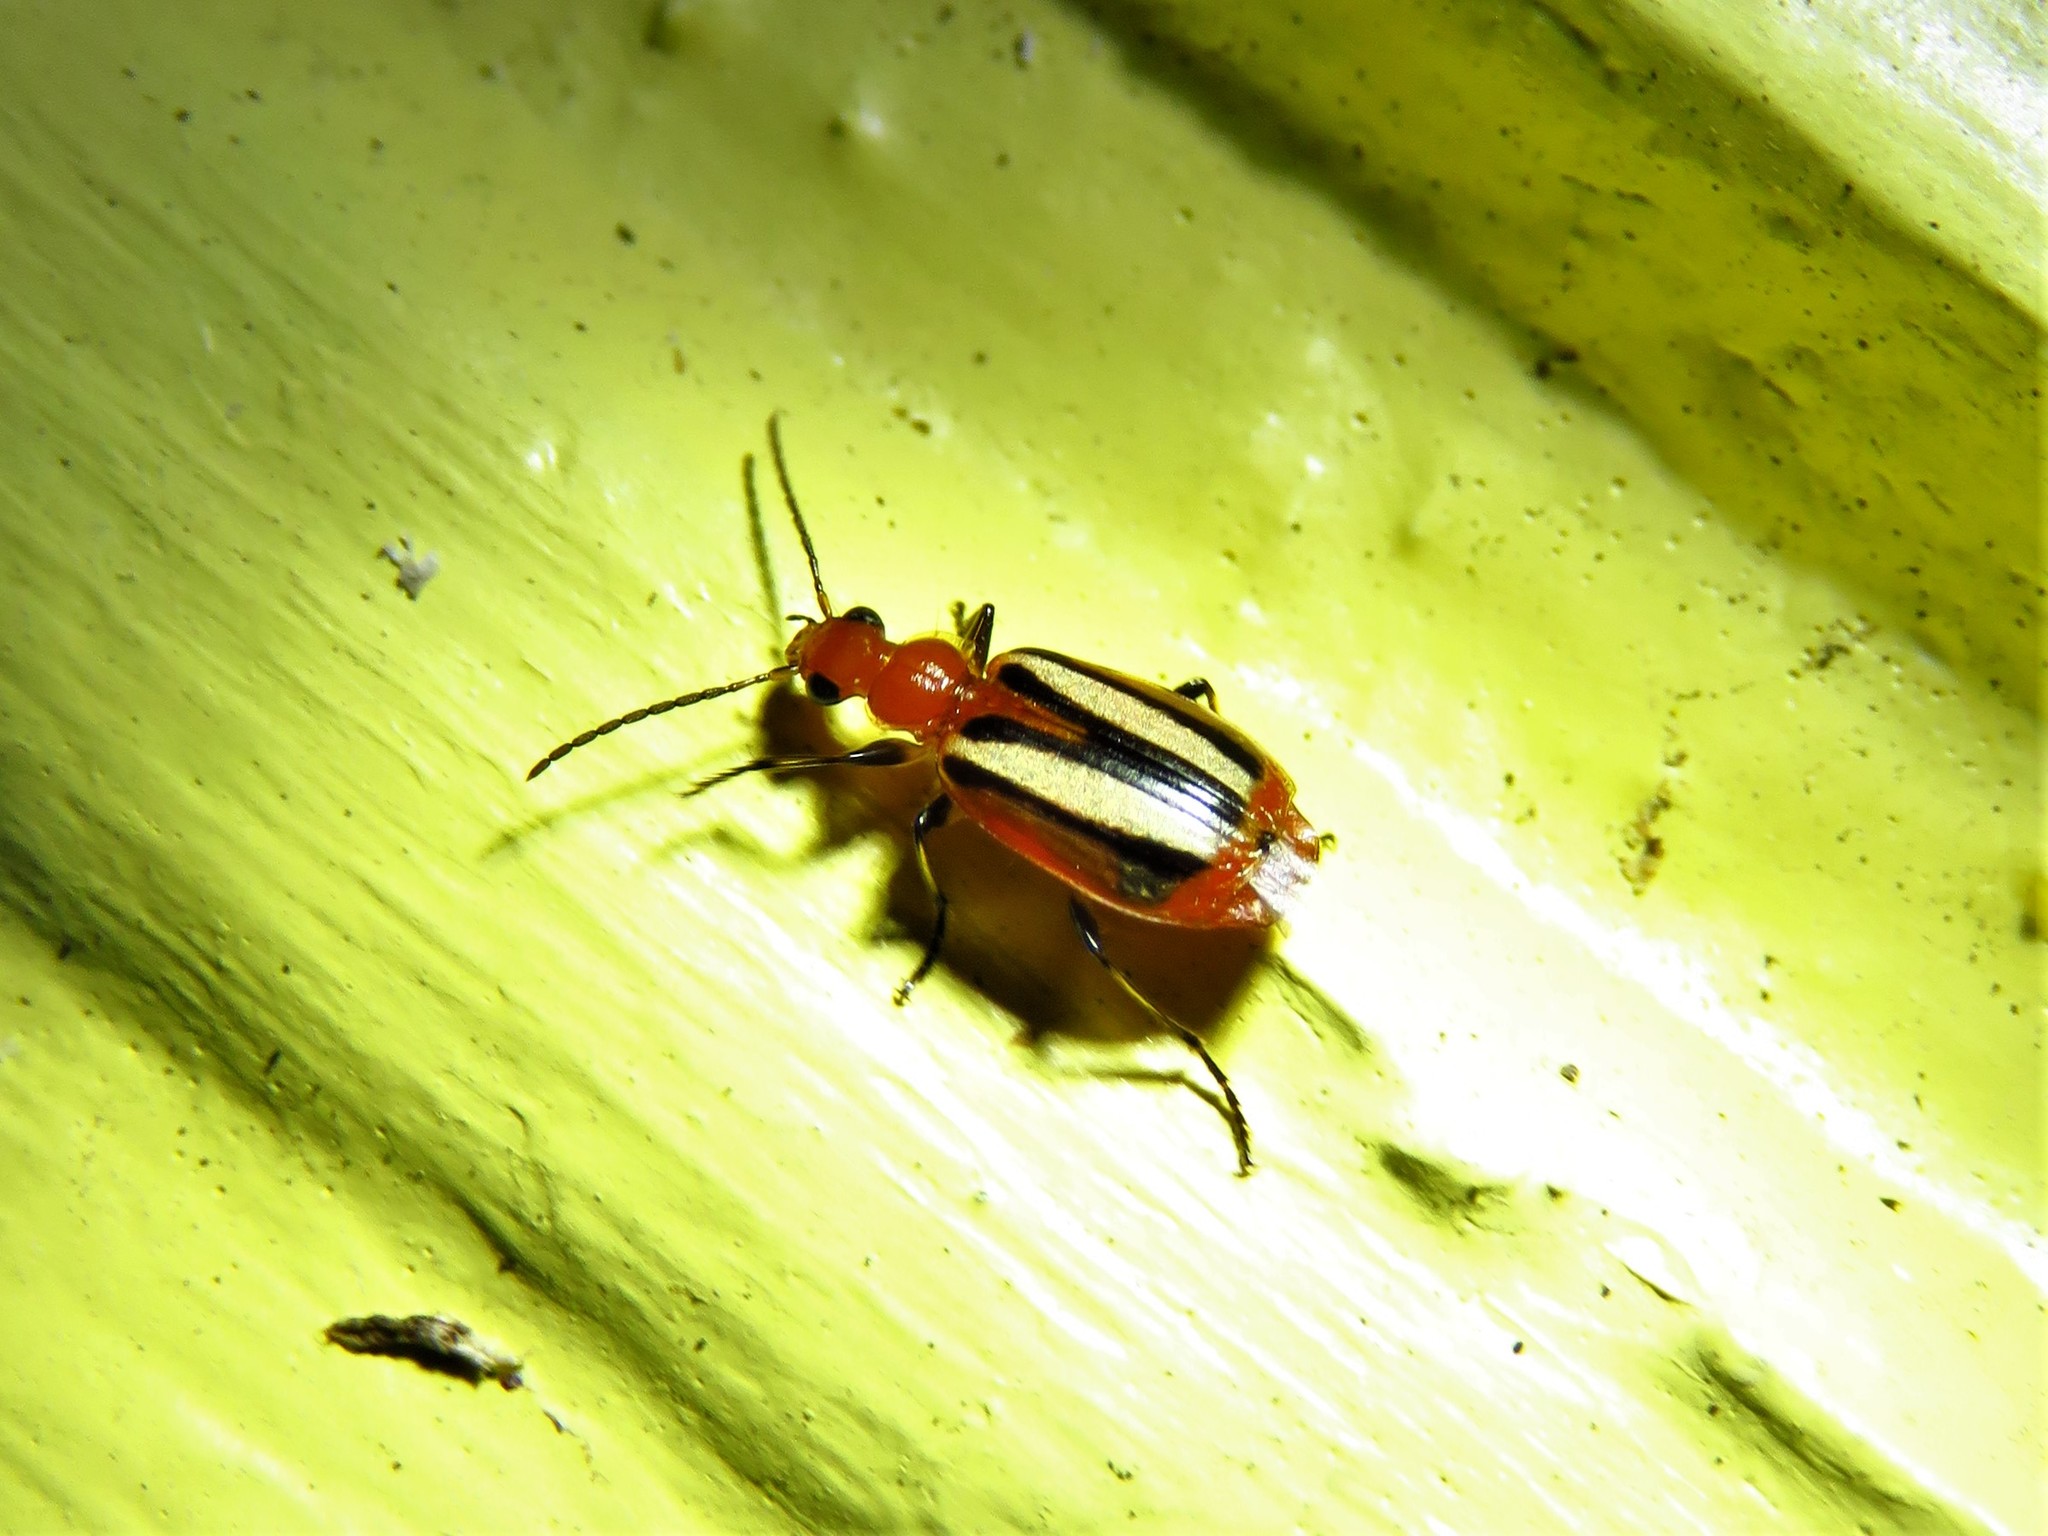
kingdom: Animalia
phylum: Arthropoda
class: Insecta
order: Coleoptera
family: Carabidae
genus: Lebia
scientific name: Lebia vittata
